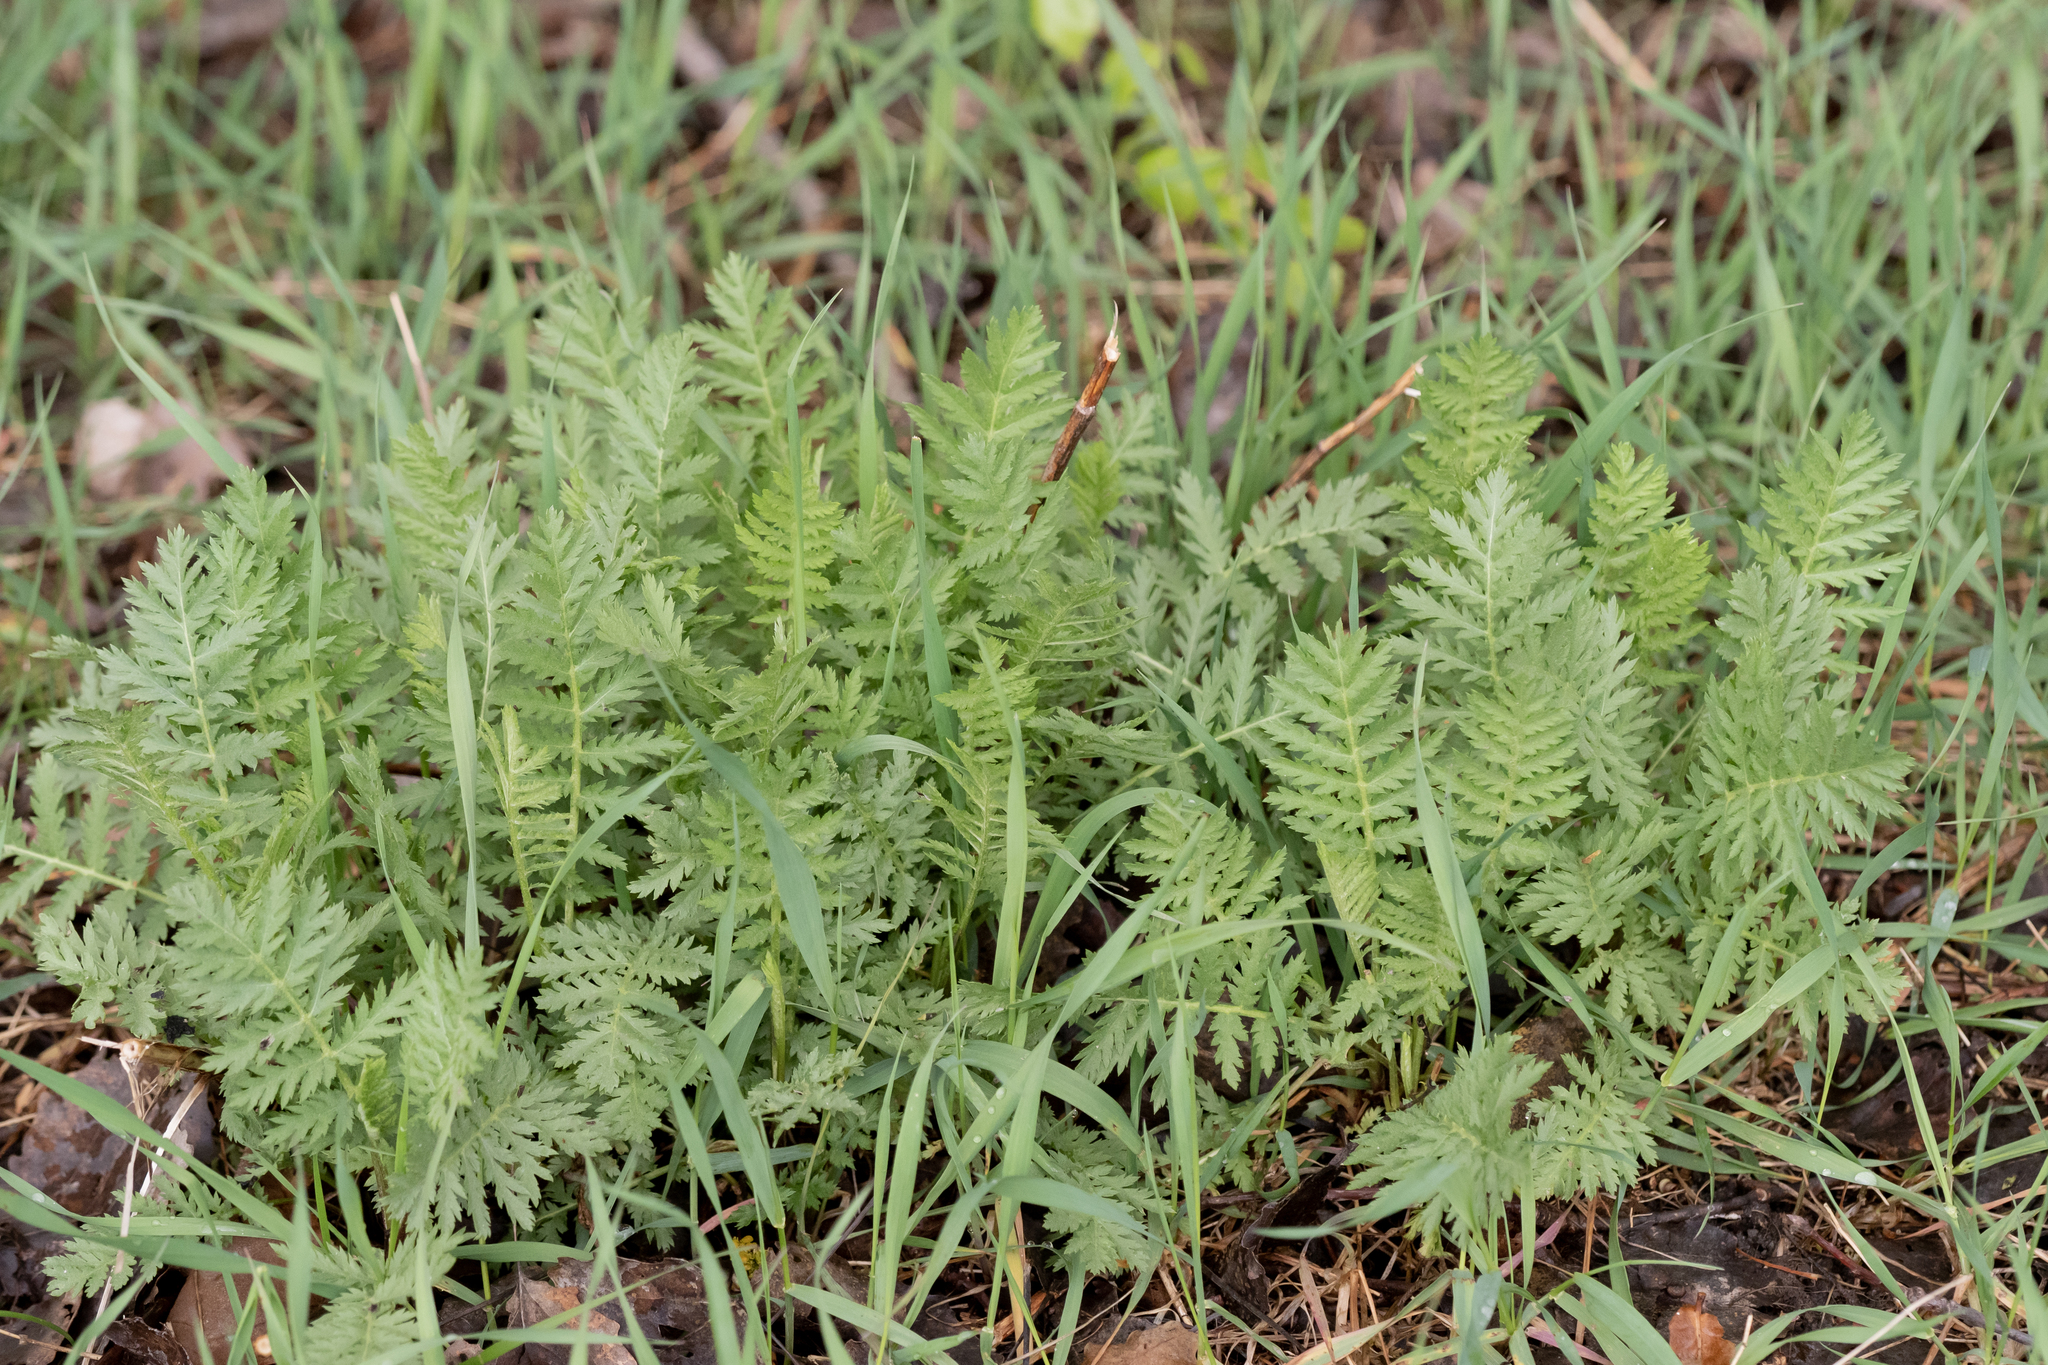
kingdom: Plantae
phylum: Tracheophyta
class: Magnoliopsida
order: Asterales
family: Asteraceae
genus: Tanacetum
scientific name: Tanacetum vulgare
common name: Common tansy
